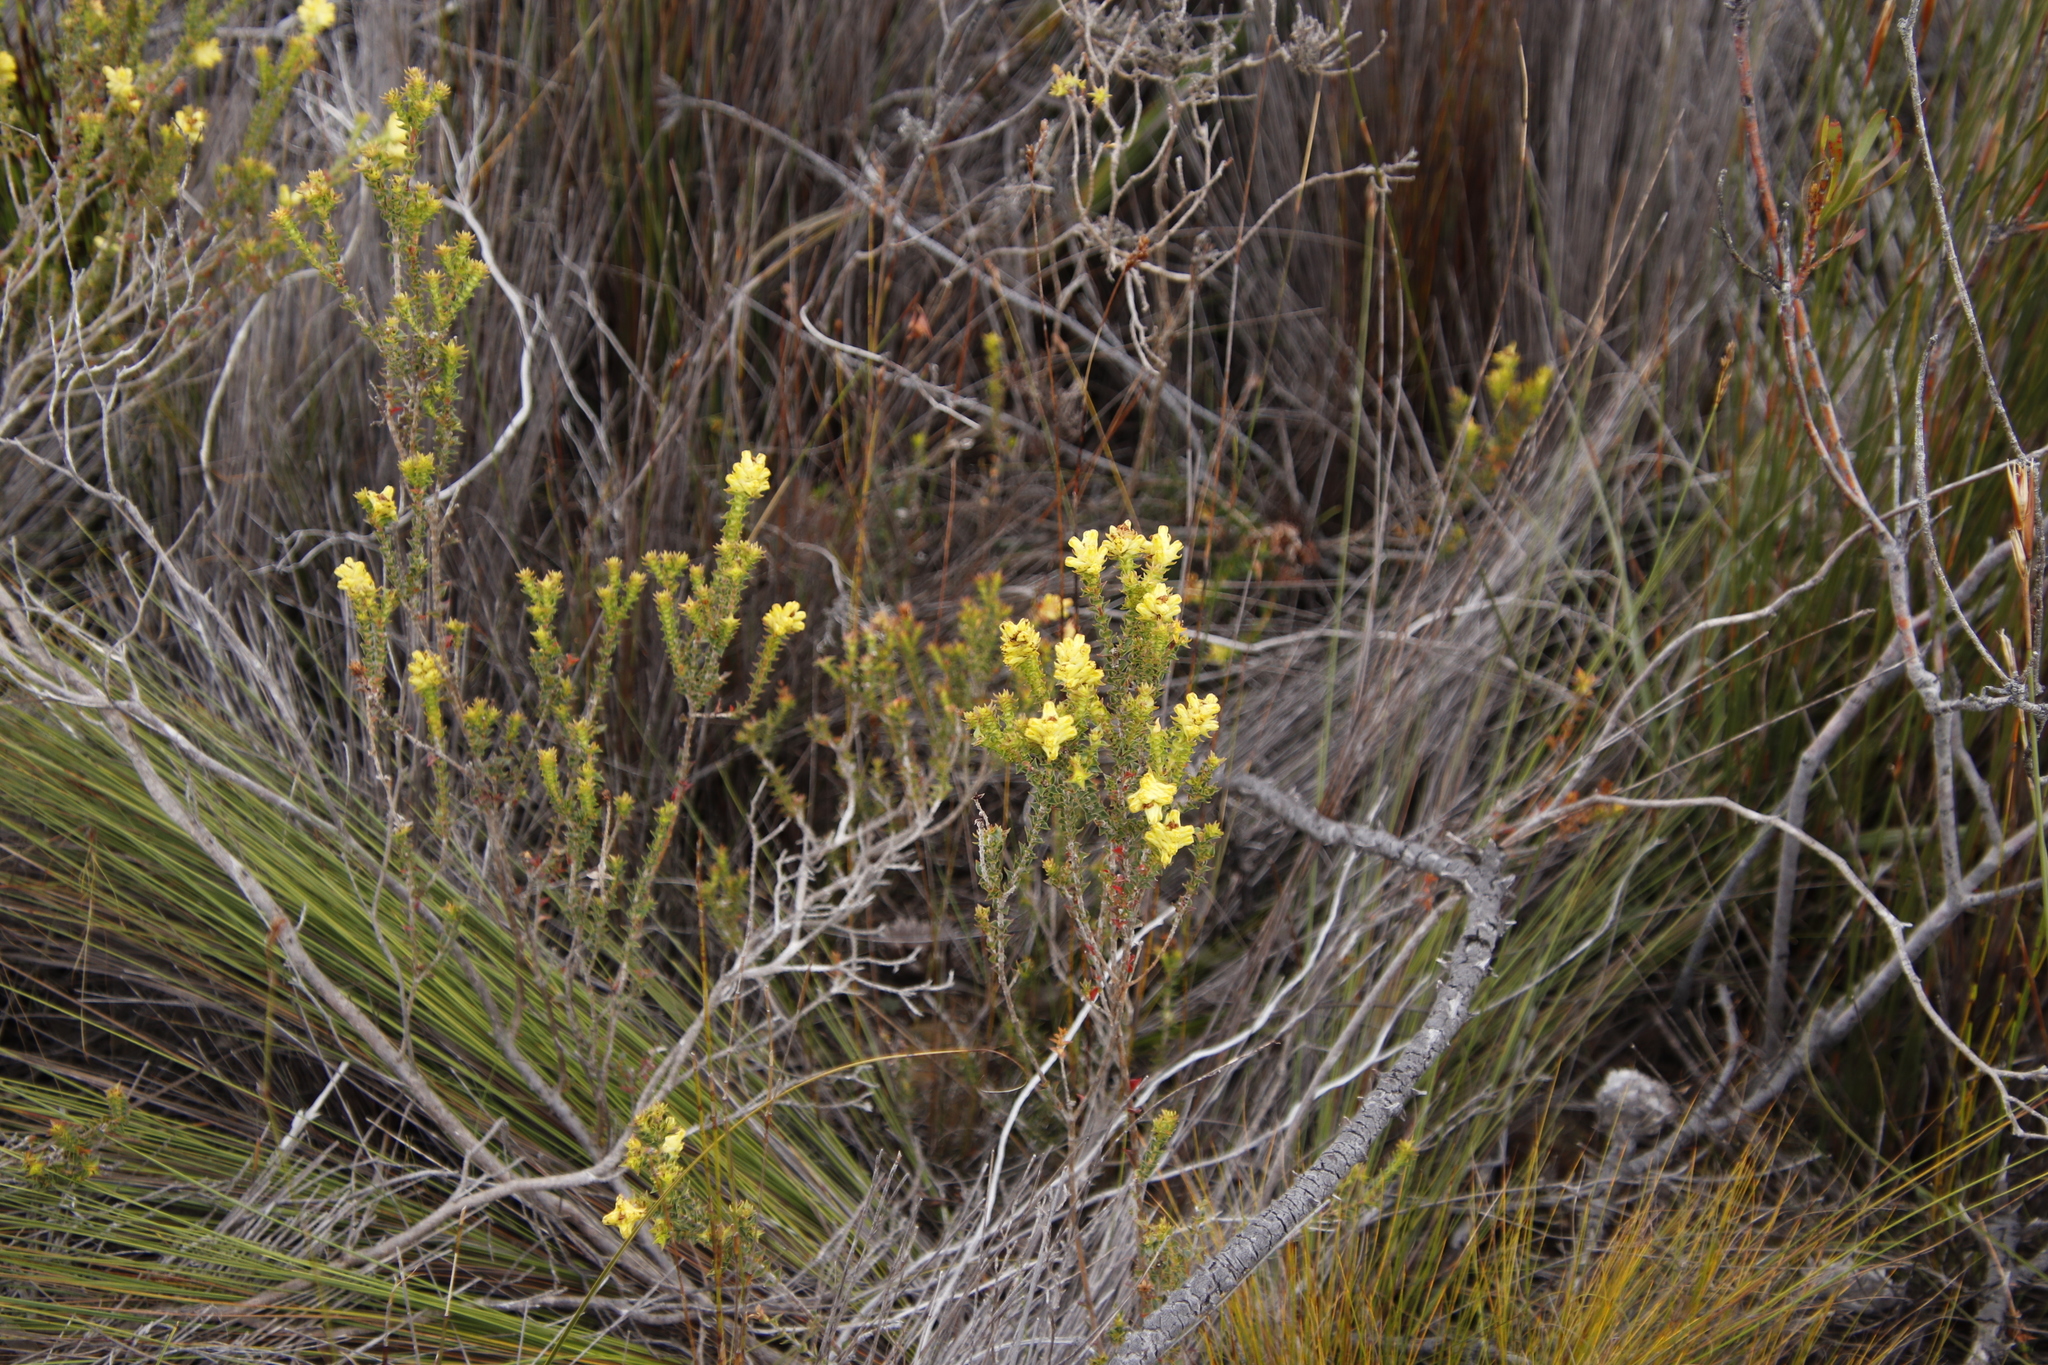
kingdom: Plantae
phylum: Tracheophyta
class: Magnoliopsida
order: Myrtales
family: Penaeaceae
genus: Penaea
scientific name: Penaea mucronata
